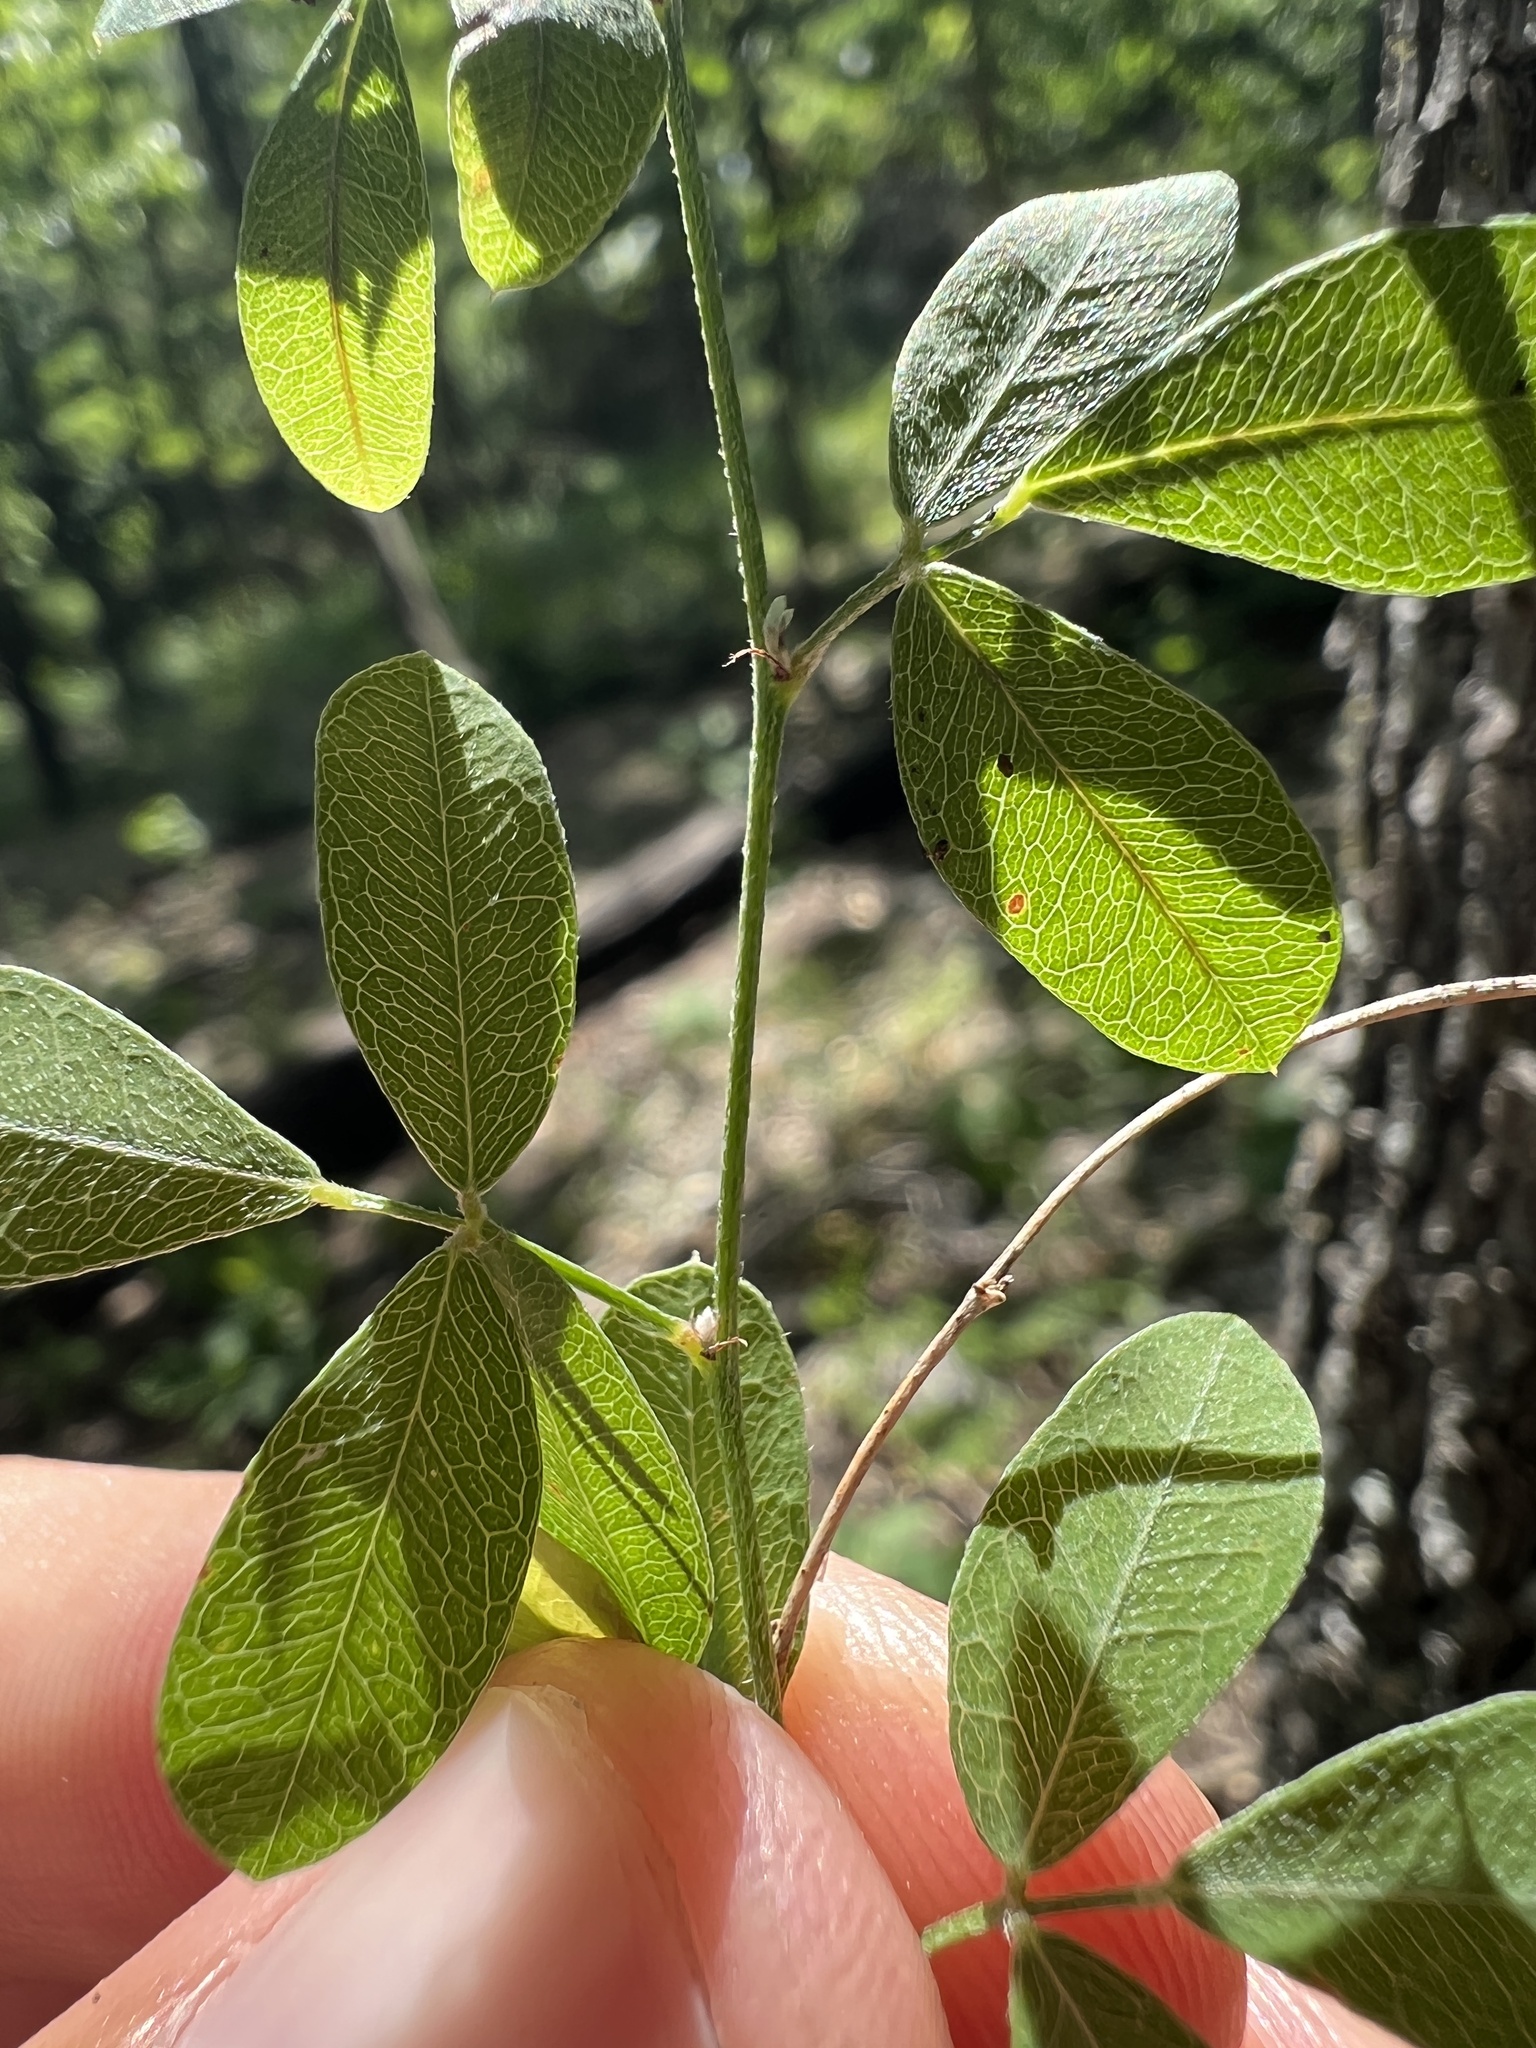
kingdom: Plantae
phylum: Tracheophyta
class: Magnoliopsida
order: Fabales
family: Fabaceae
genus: Lespedeza
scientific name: Lespedeza repens
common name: Creeping bush-clover
